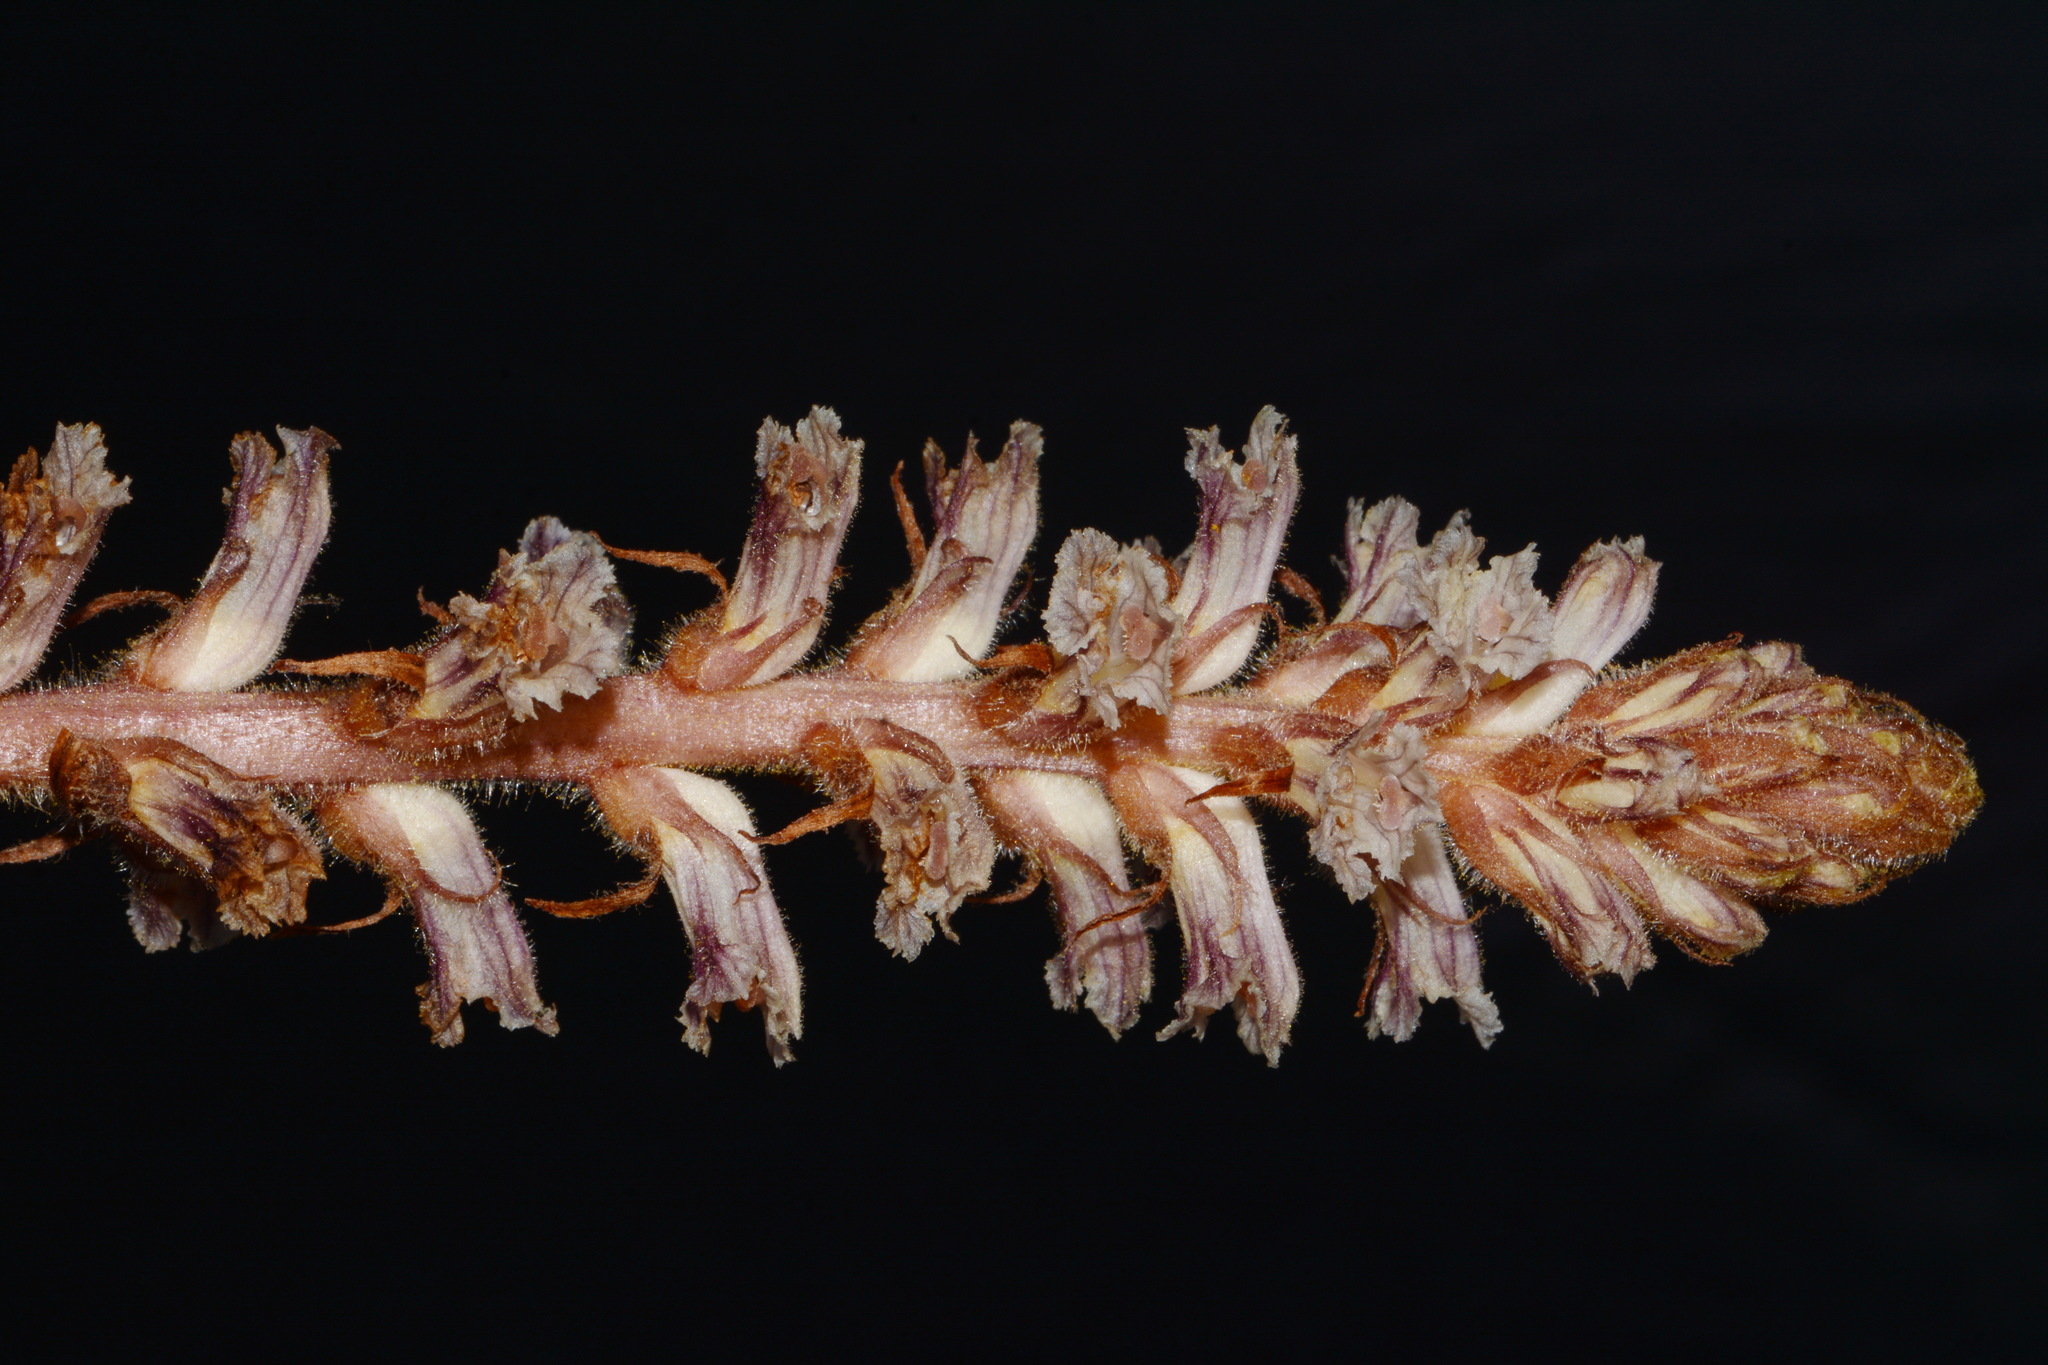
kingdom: Plantae
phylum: Tracheophyta
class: Magnoliopsida
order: Lamiales
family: Orobanchaceae
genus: Orobanche
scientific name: Orobanche minor
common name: Common broomrape
